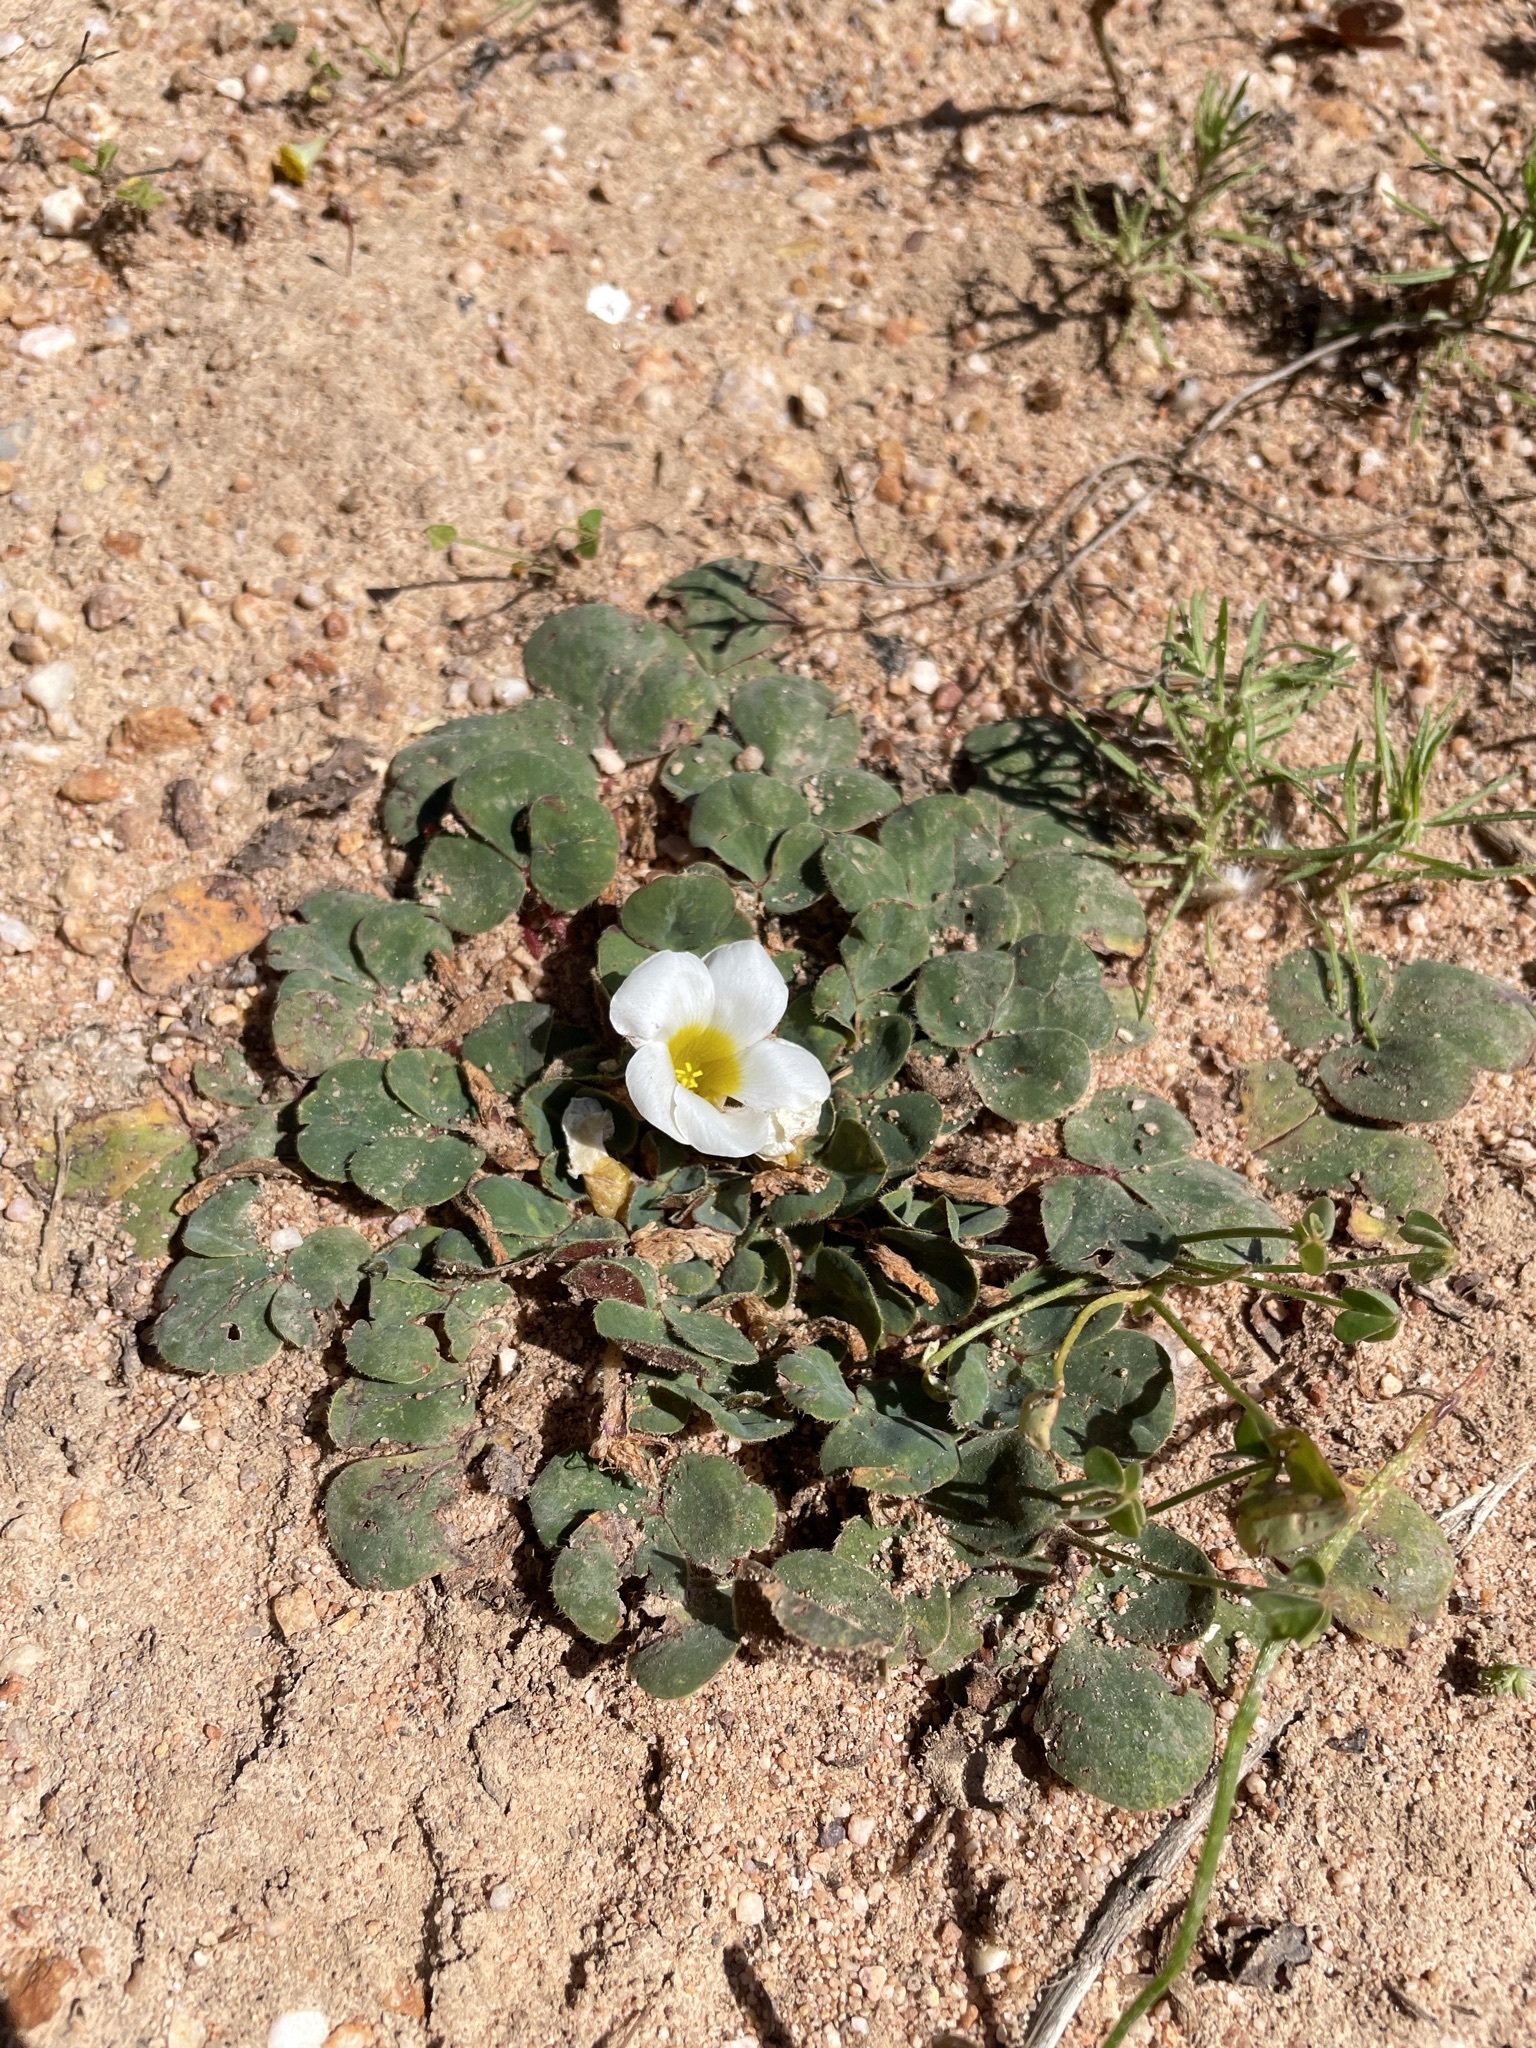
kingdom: Plantae
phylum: Tracheophyta
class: Magnoliopsida
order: Oxalidales
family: Oxalidaceae
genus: Oxalis
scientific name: Oxalis purpurea
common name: Purple woodsorrel
